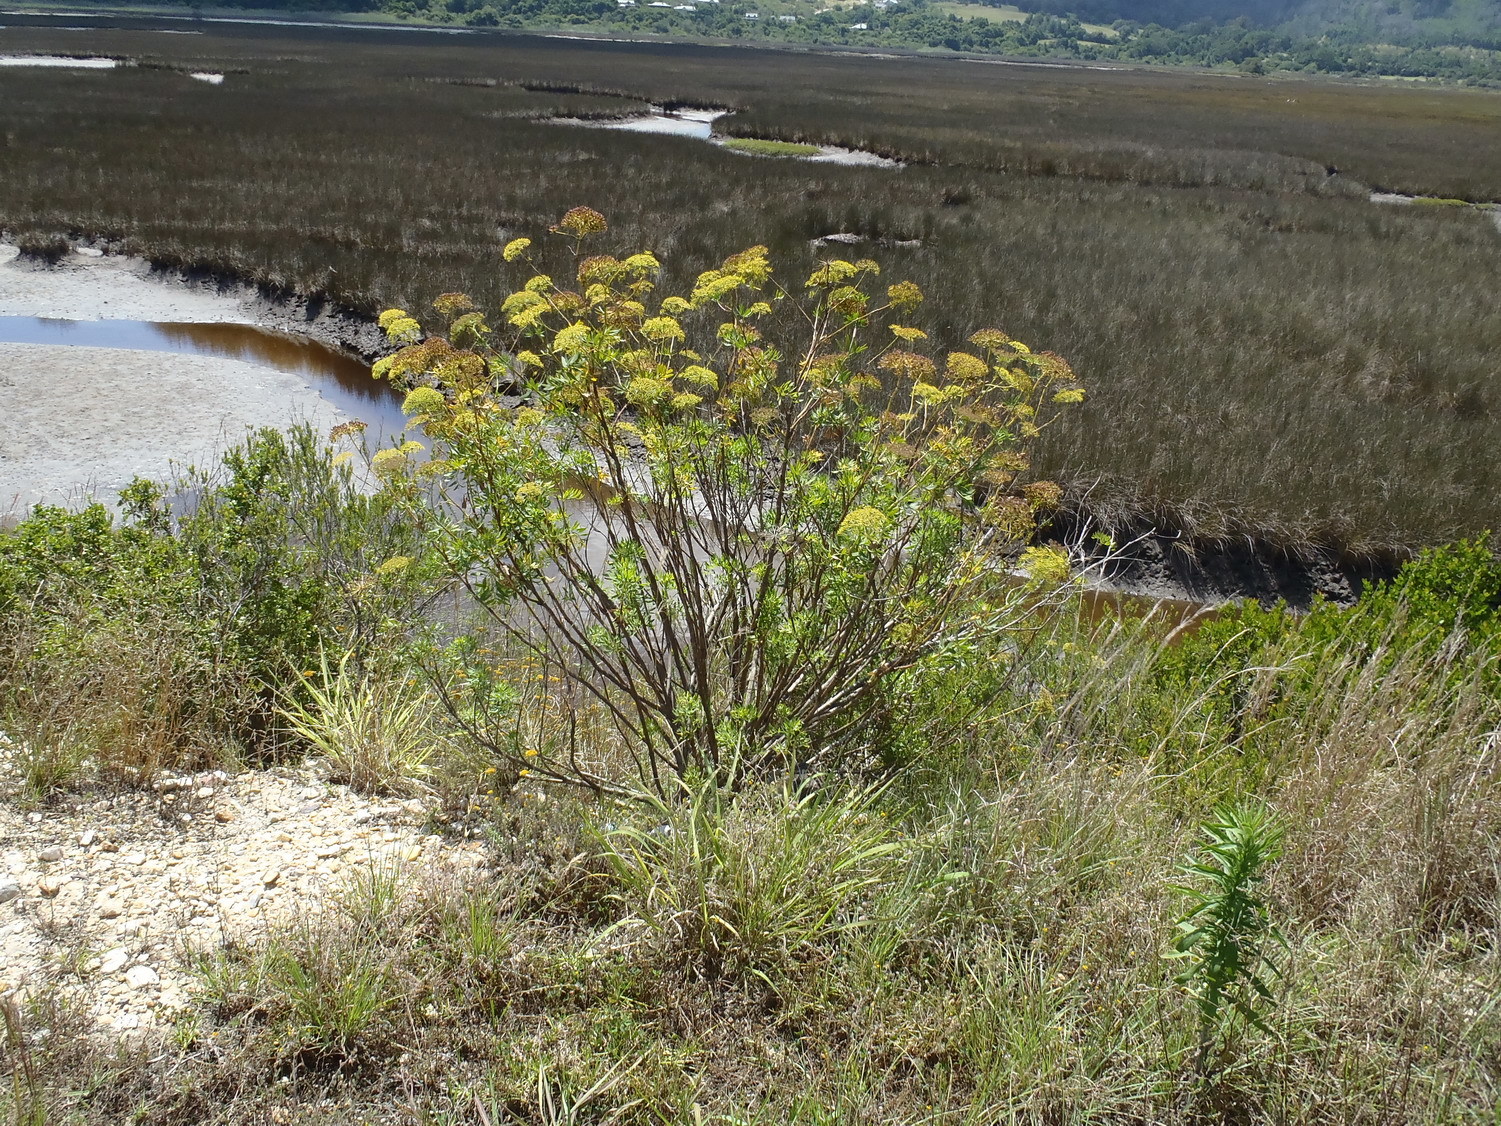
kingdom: Plantae
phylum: Tracheophyta
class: Magnoliopsida
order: Apiales
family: Apiaceae
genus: Notobubon
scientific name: Notobubon laevigatum
